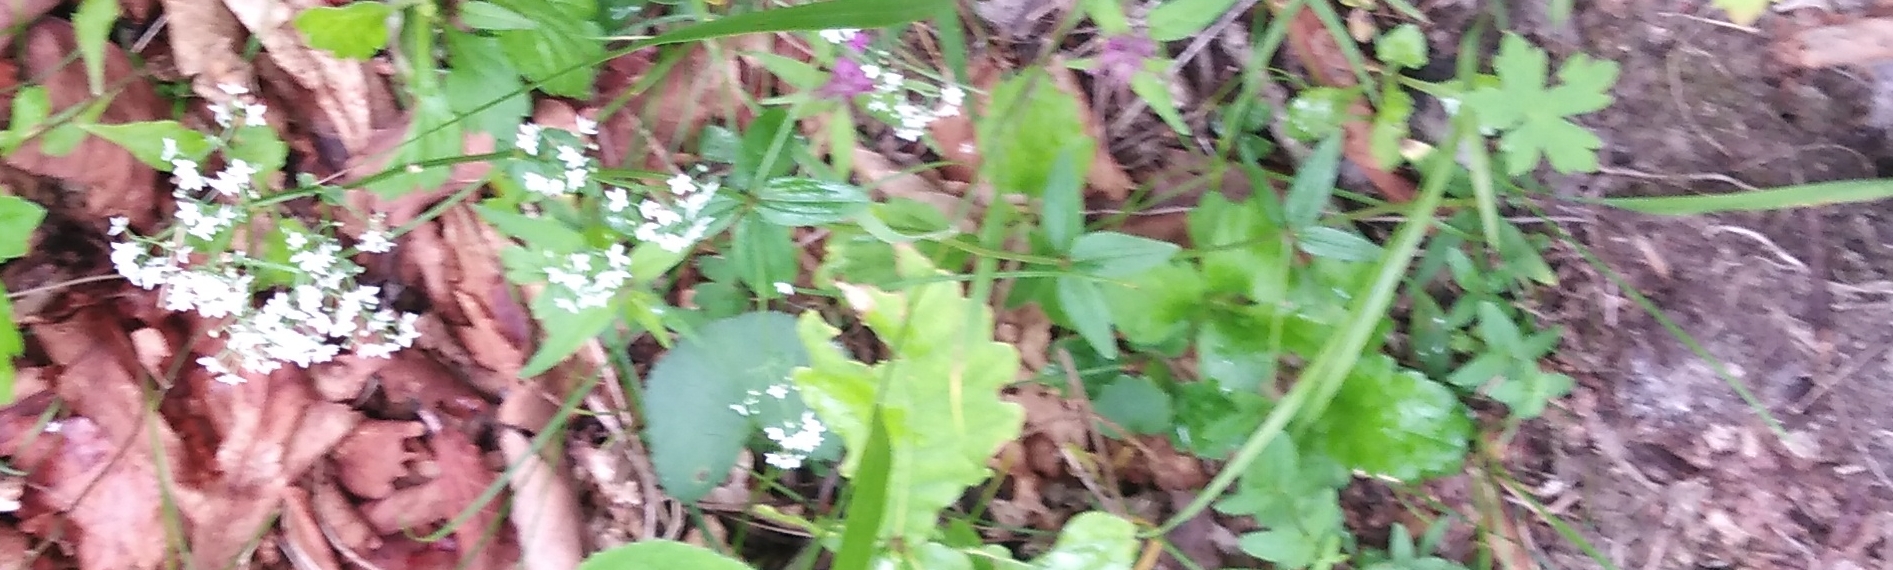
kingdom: Plantae
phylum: Tracheophyta
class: Magnoliopsida
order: Gentianales
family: Rubiaceae
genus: Galium
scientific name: Galium boreale
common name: Northern bedstraw
